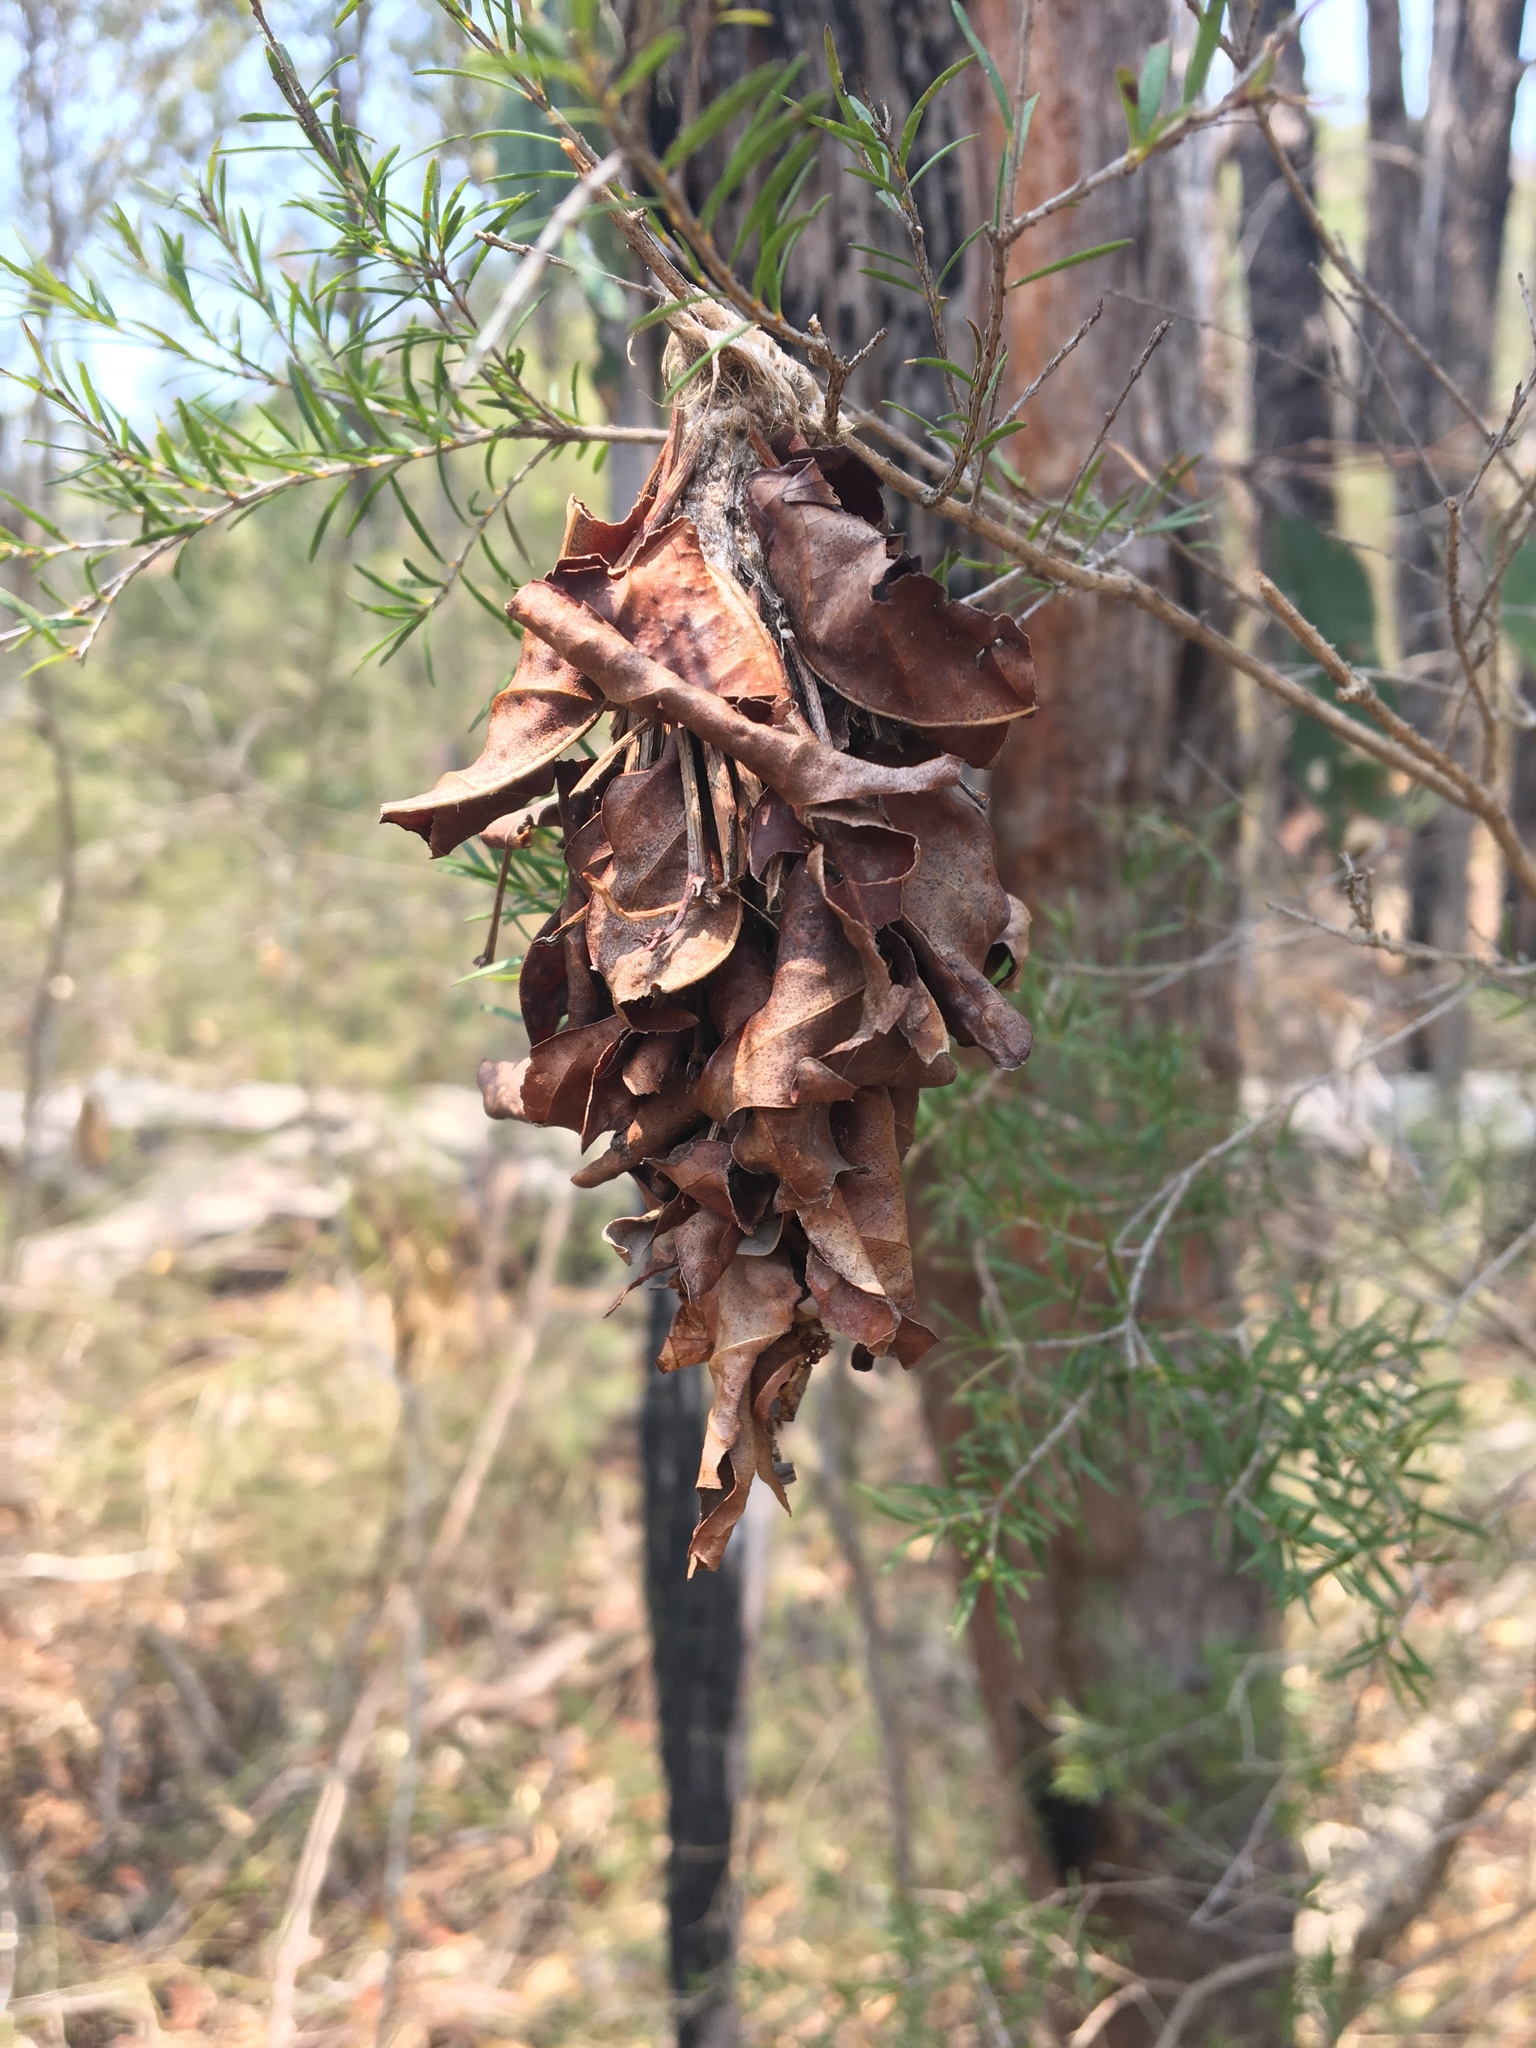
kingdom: Animalia
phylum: Arthropoda
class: Insecta
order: Lepidoptera
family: Psychidae
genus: Hyalarcta
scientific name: Hyalarcta huebneri
